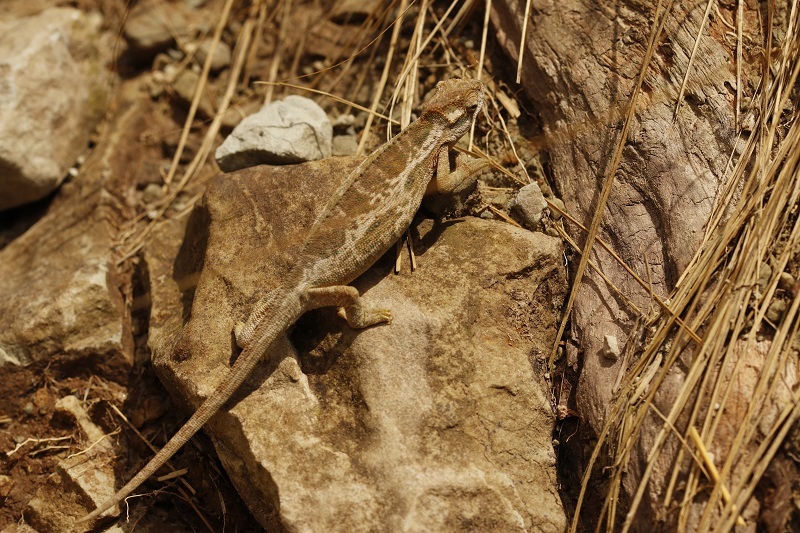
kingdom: Animalia
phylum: Chordata
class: Squamata
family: Chamaeleonidae
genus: Bradypodion
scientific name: Bradypodion dracomontanum
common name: Drakensberg dwarf chameleon
